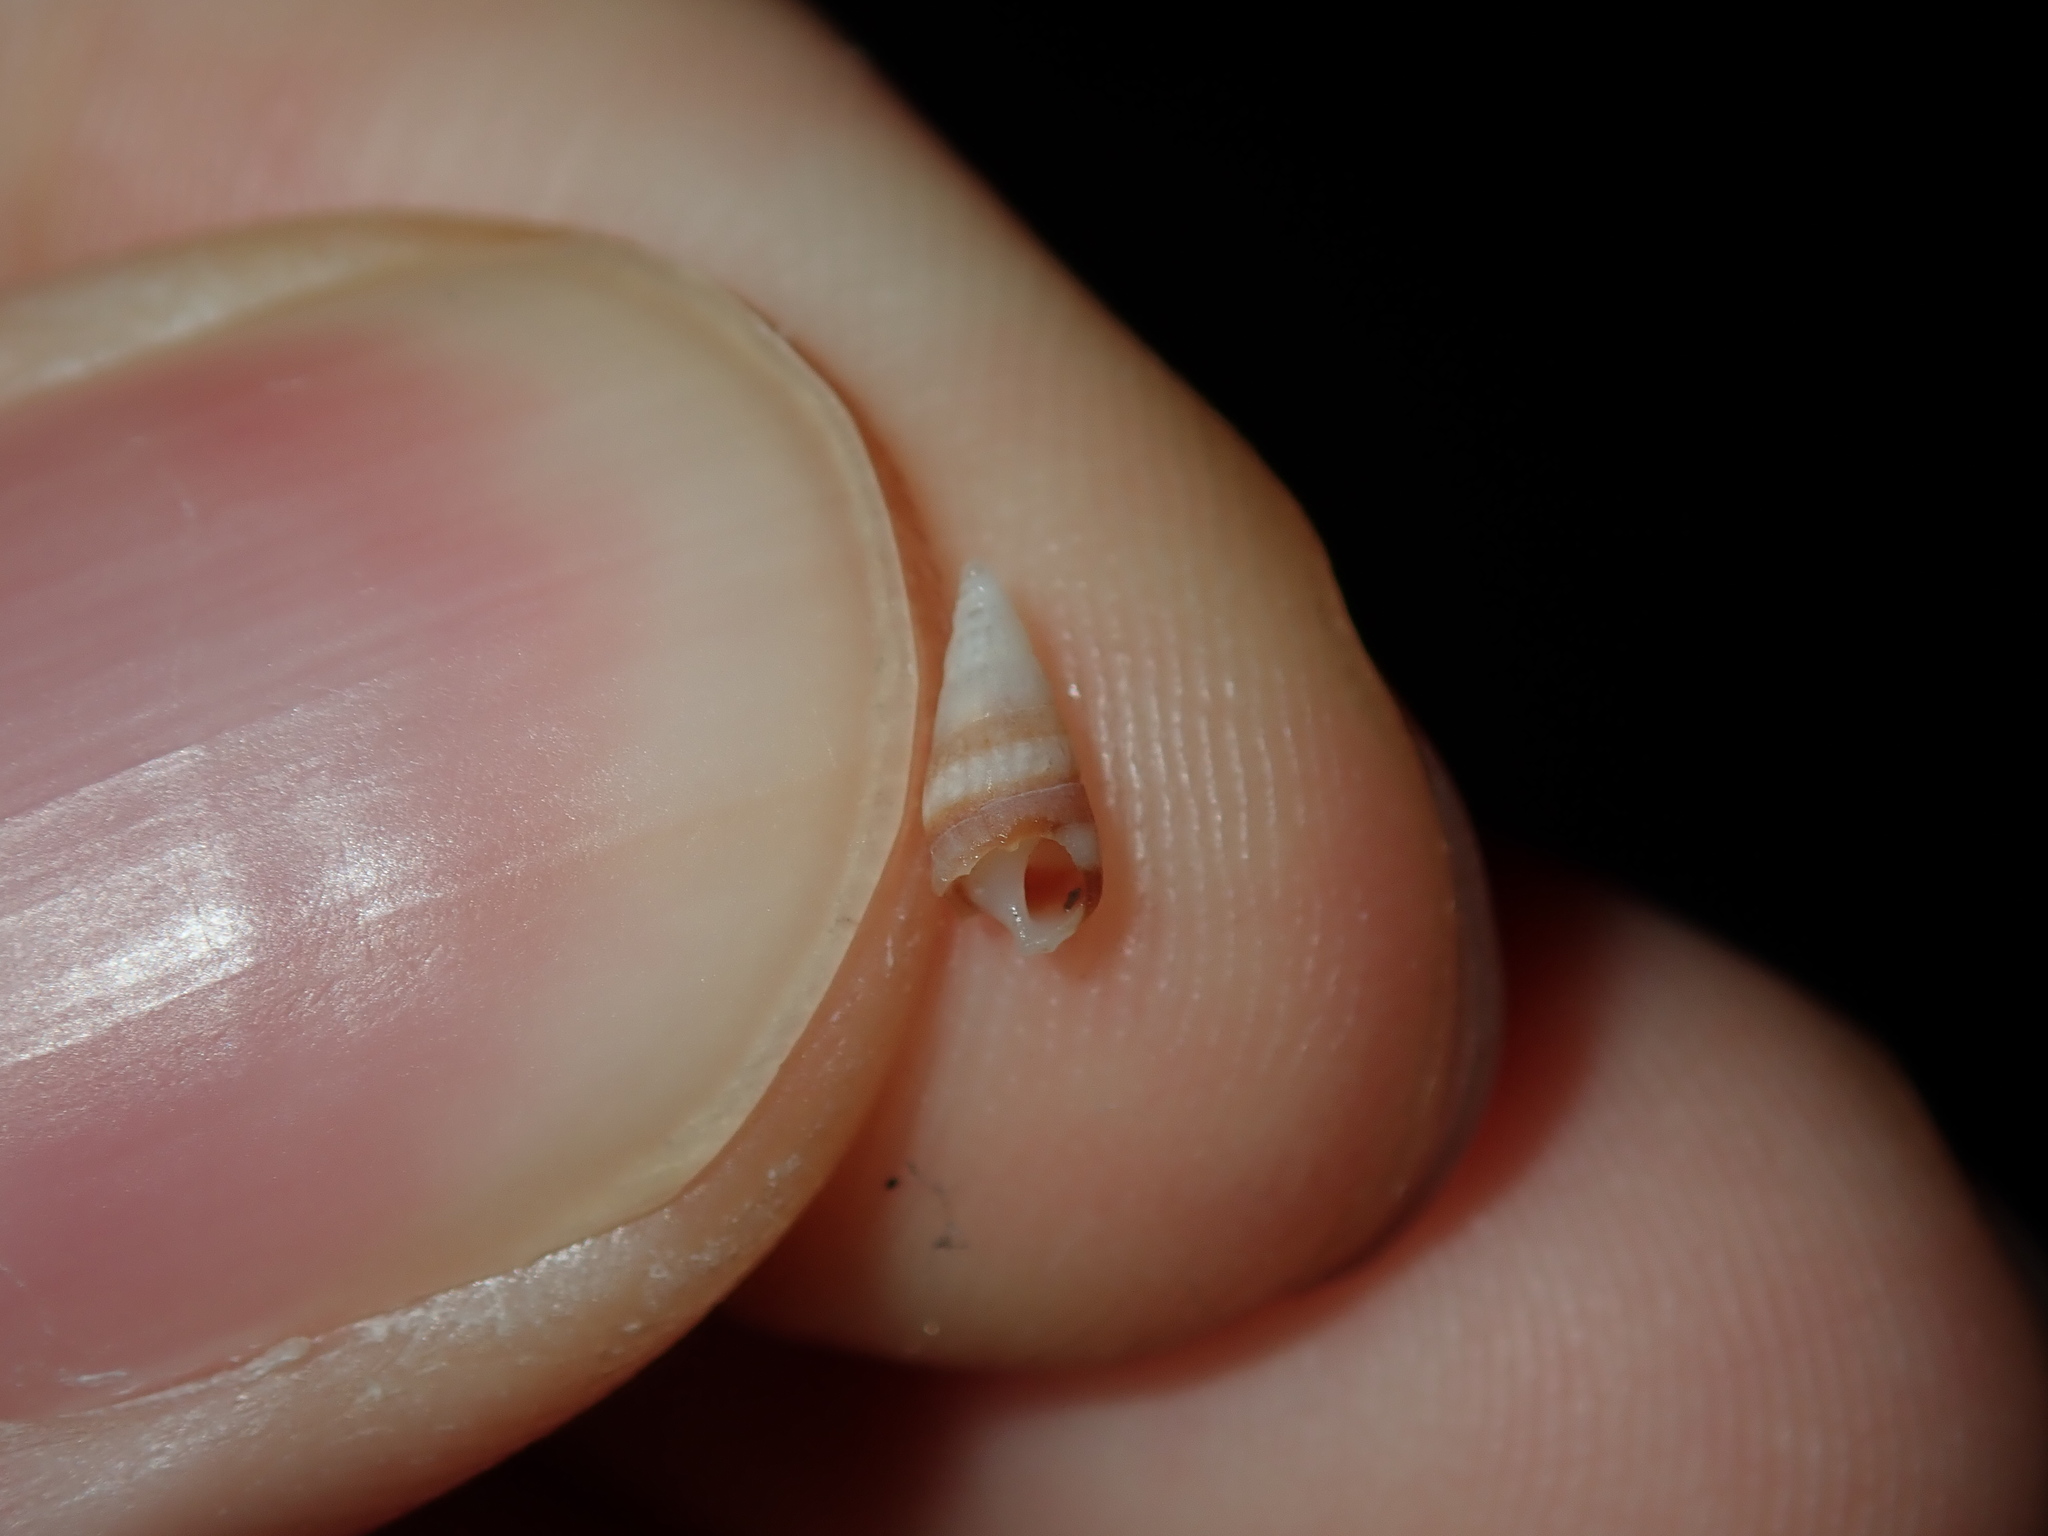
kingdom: Animalia
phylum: Mollusca
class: Gastropoda
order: Littorinimorpha
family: Rissoinidae
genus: Rissoina
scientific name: Rissoina fasciata
